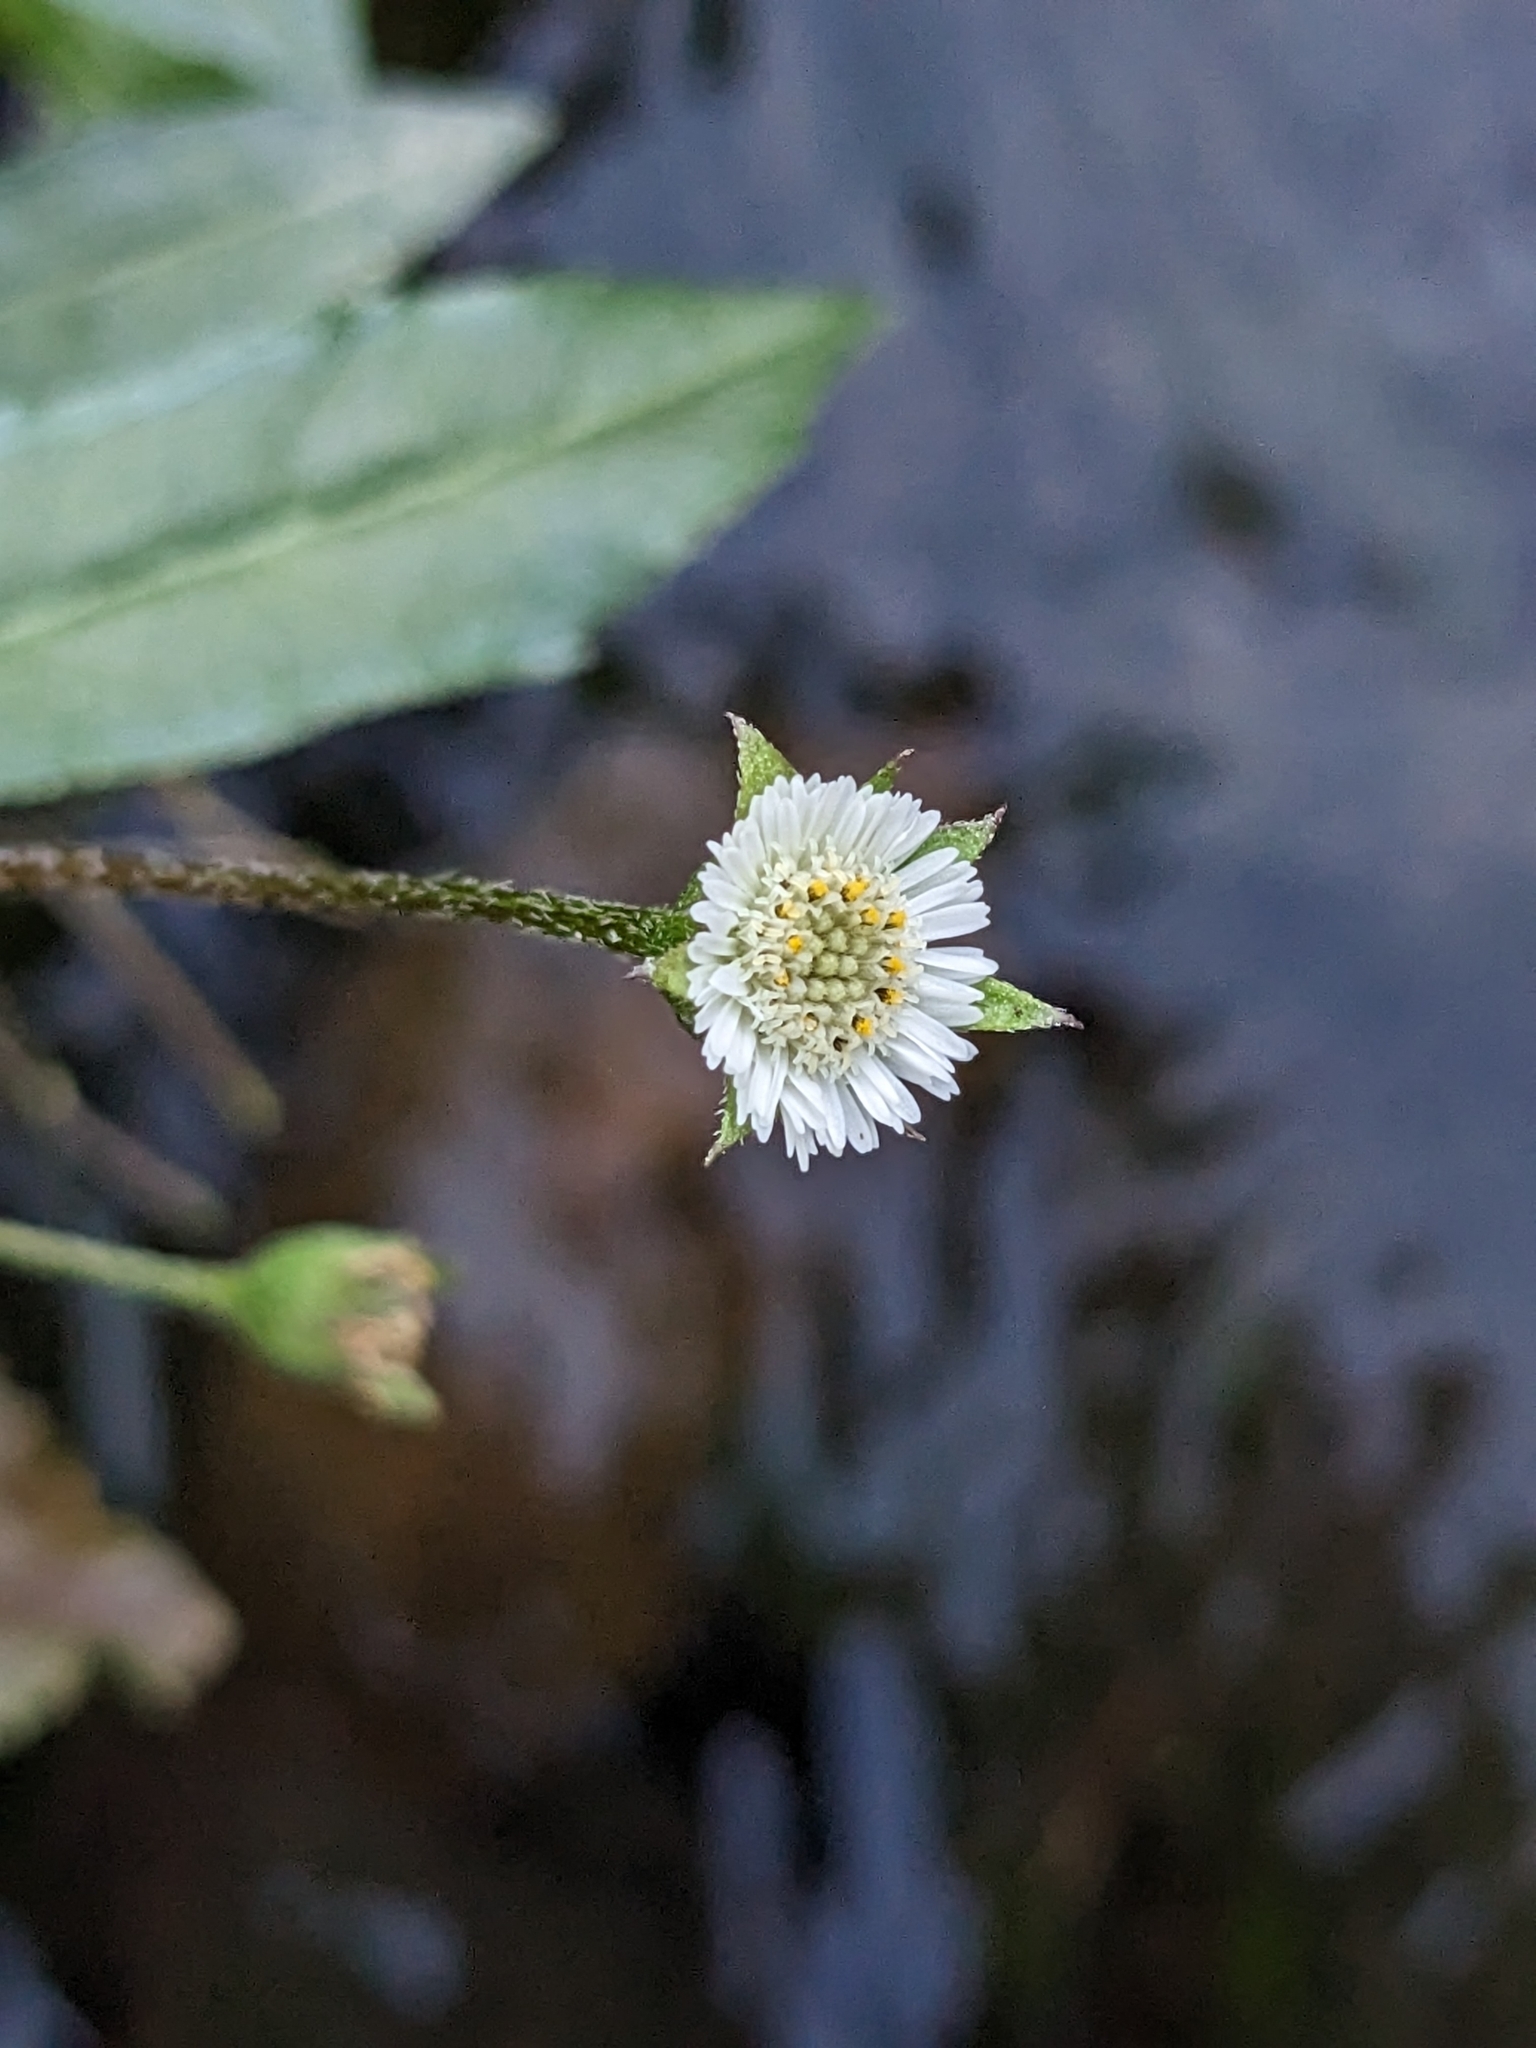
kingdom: Plantae
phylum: Tracheophyta
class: Magnoliopsida
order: Asterales
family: Asteraceae
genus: Eclipta
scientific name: Eclipta prostrata
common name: False daisy
